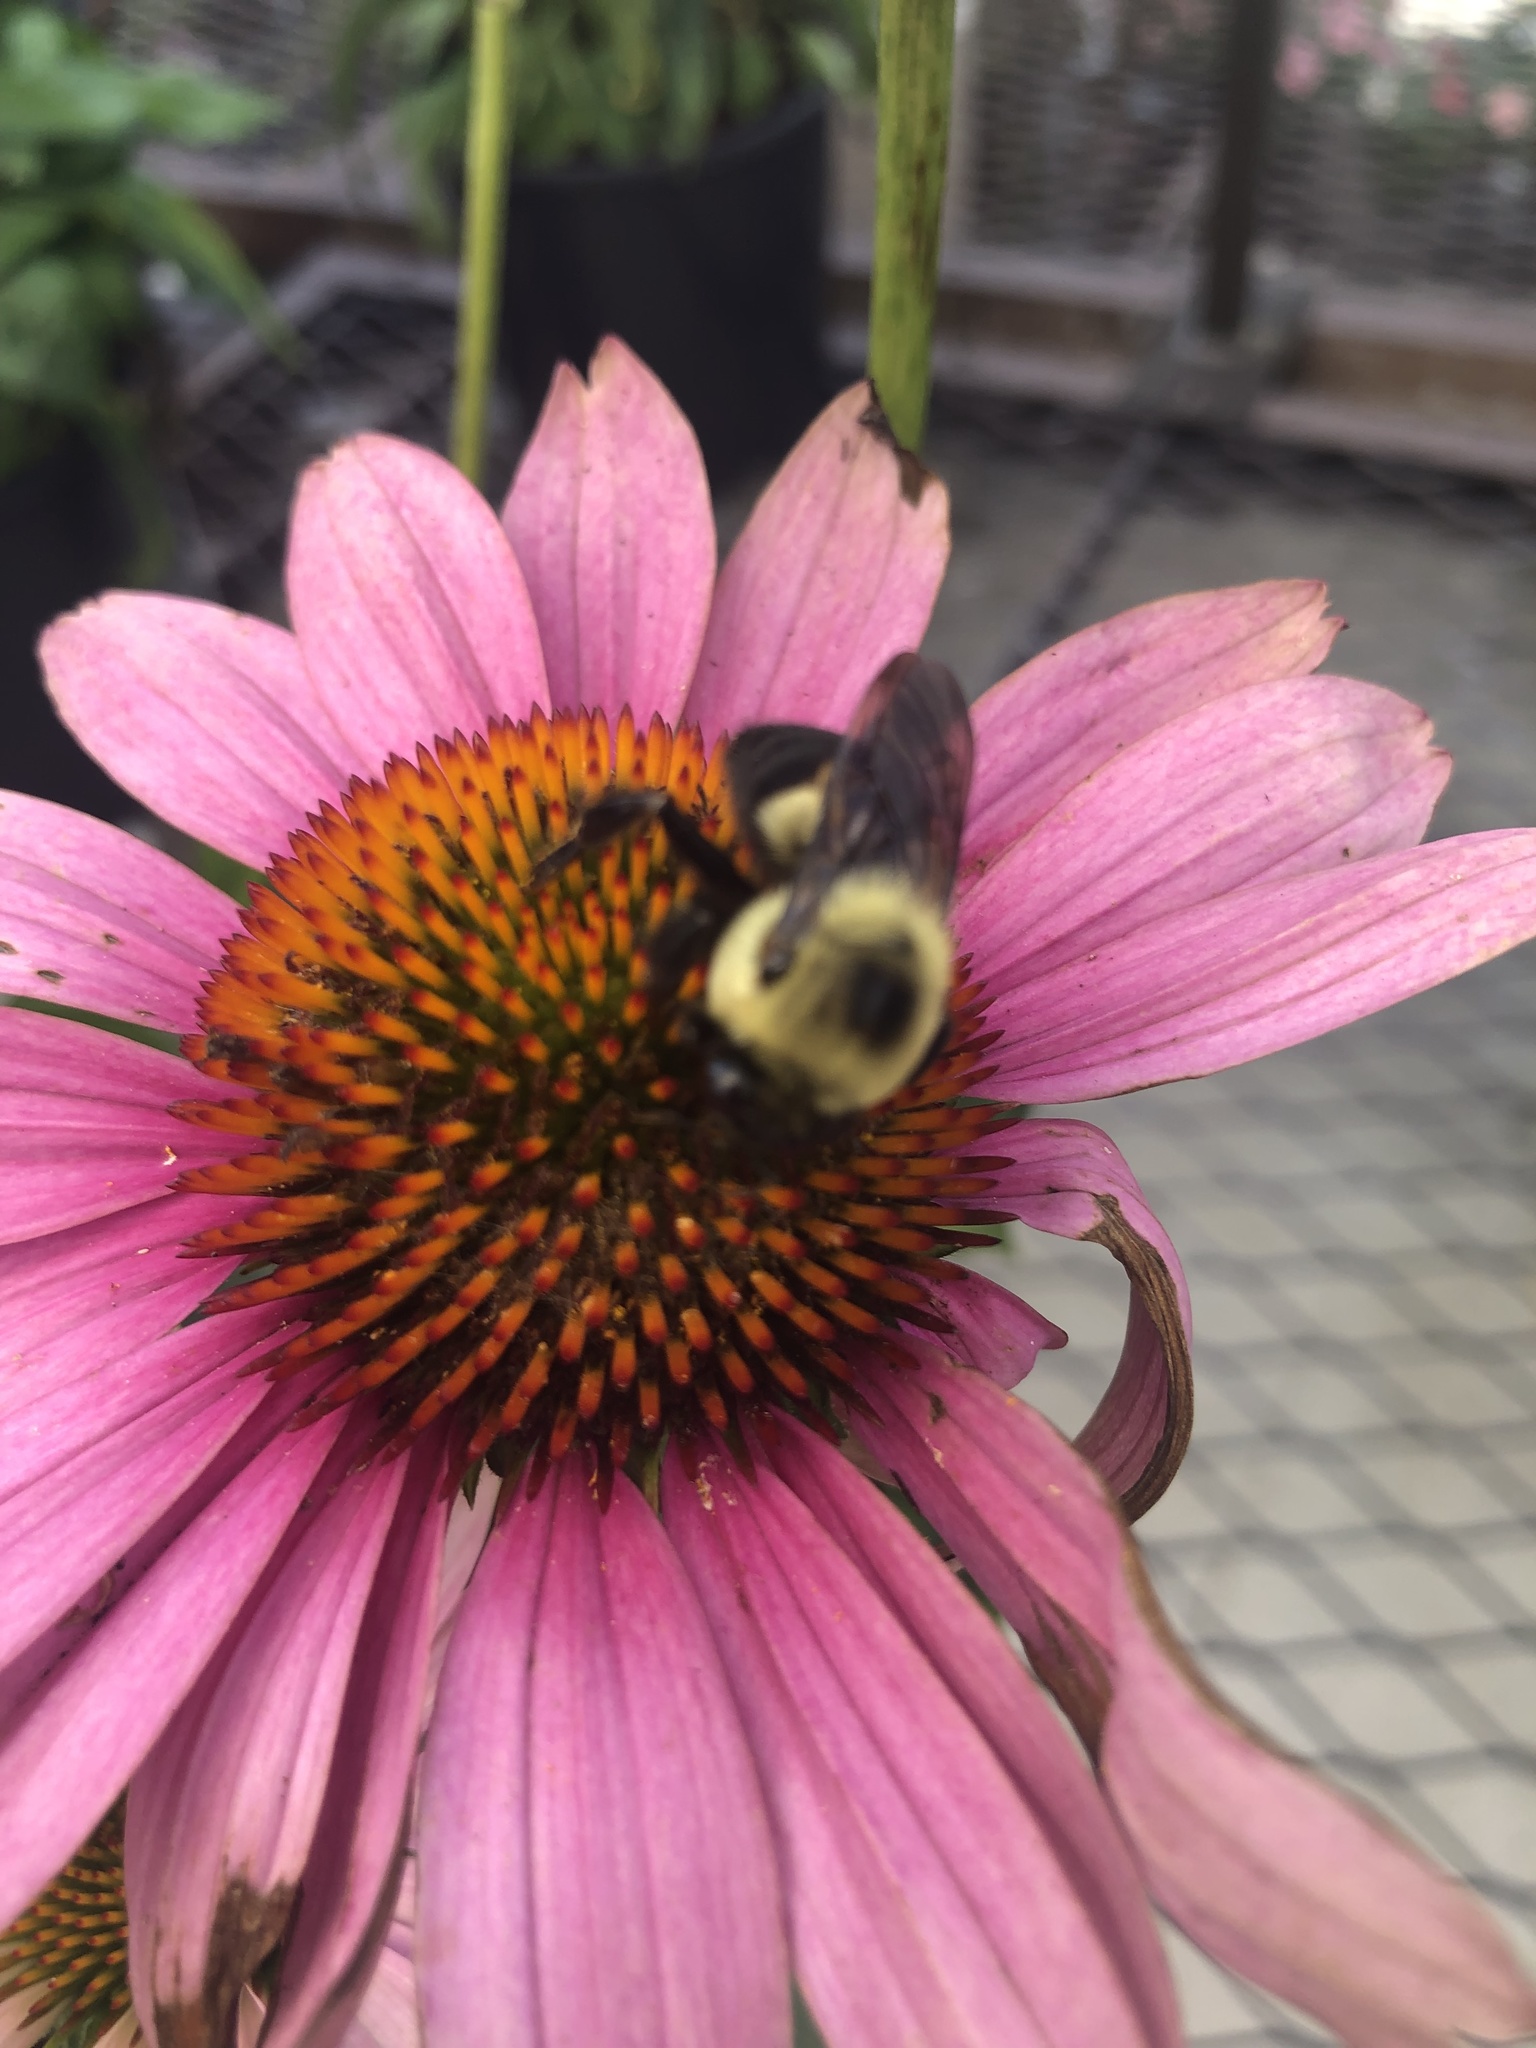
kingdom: Animalia
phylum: Arthropoda
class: Insecta
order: Hymenoptera
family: Apidae
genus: Bombus
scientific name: Bombus griseocollis
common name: Brown-belted bumble bee
